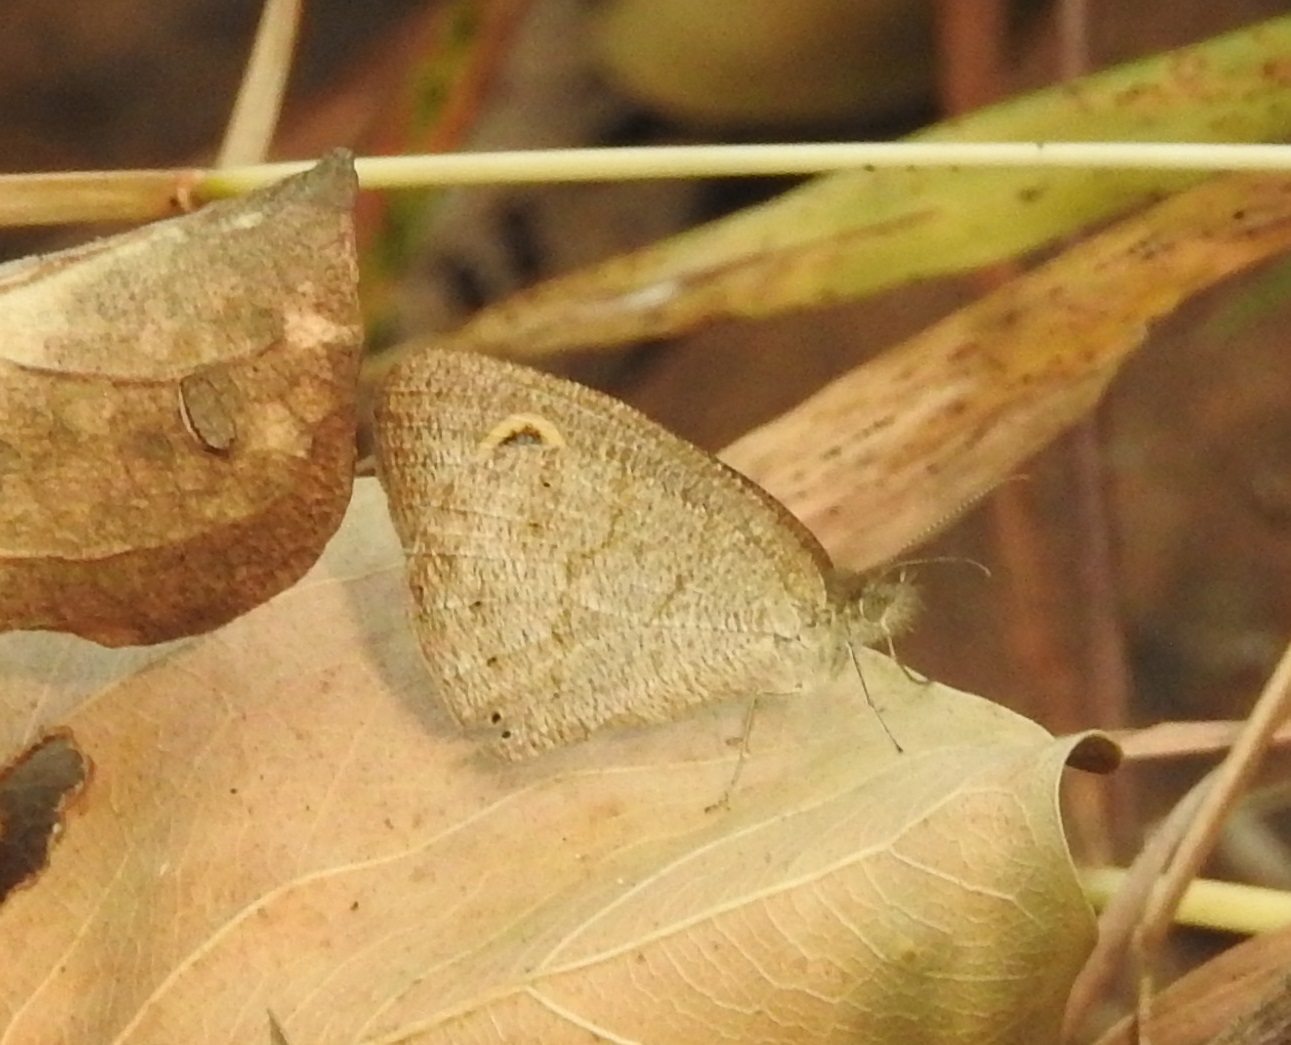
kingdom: Animalia
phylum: Arthropoda
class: Insecta
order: Lepidoptera
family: Nymphalidae
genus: Ypthima
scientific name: Ypthima baldus
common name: Common five-ring
